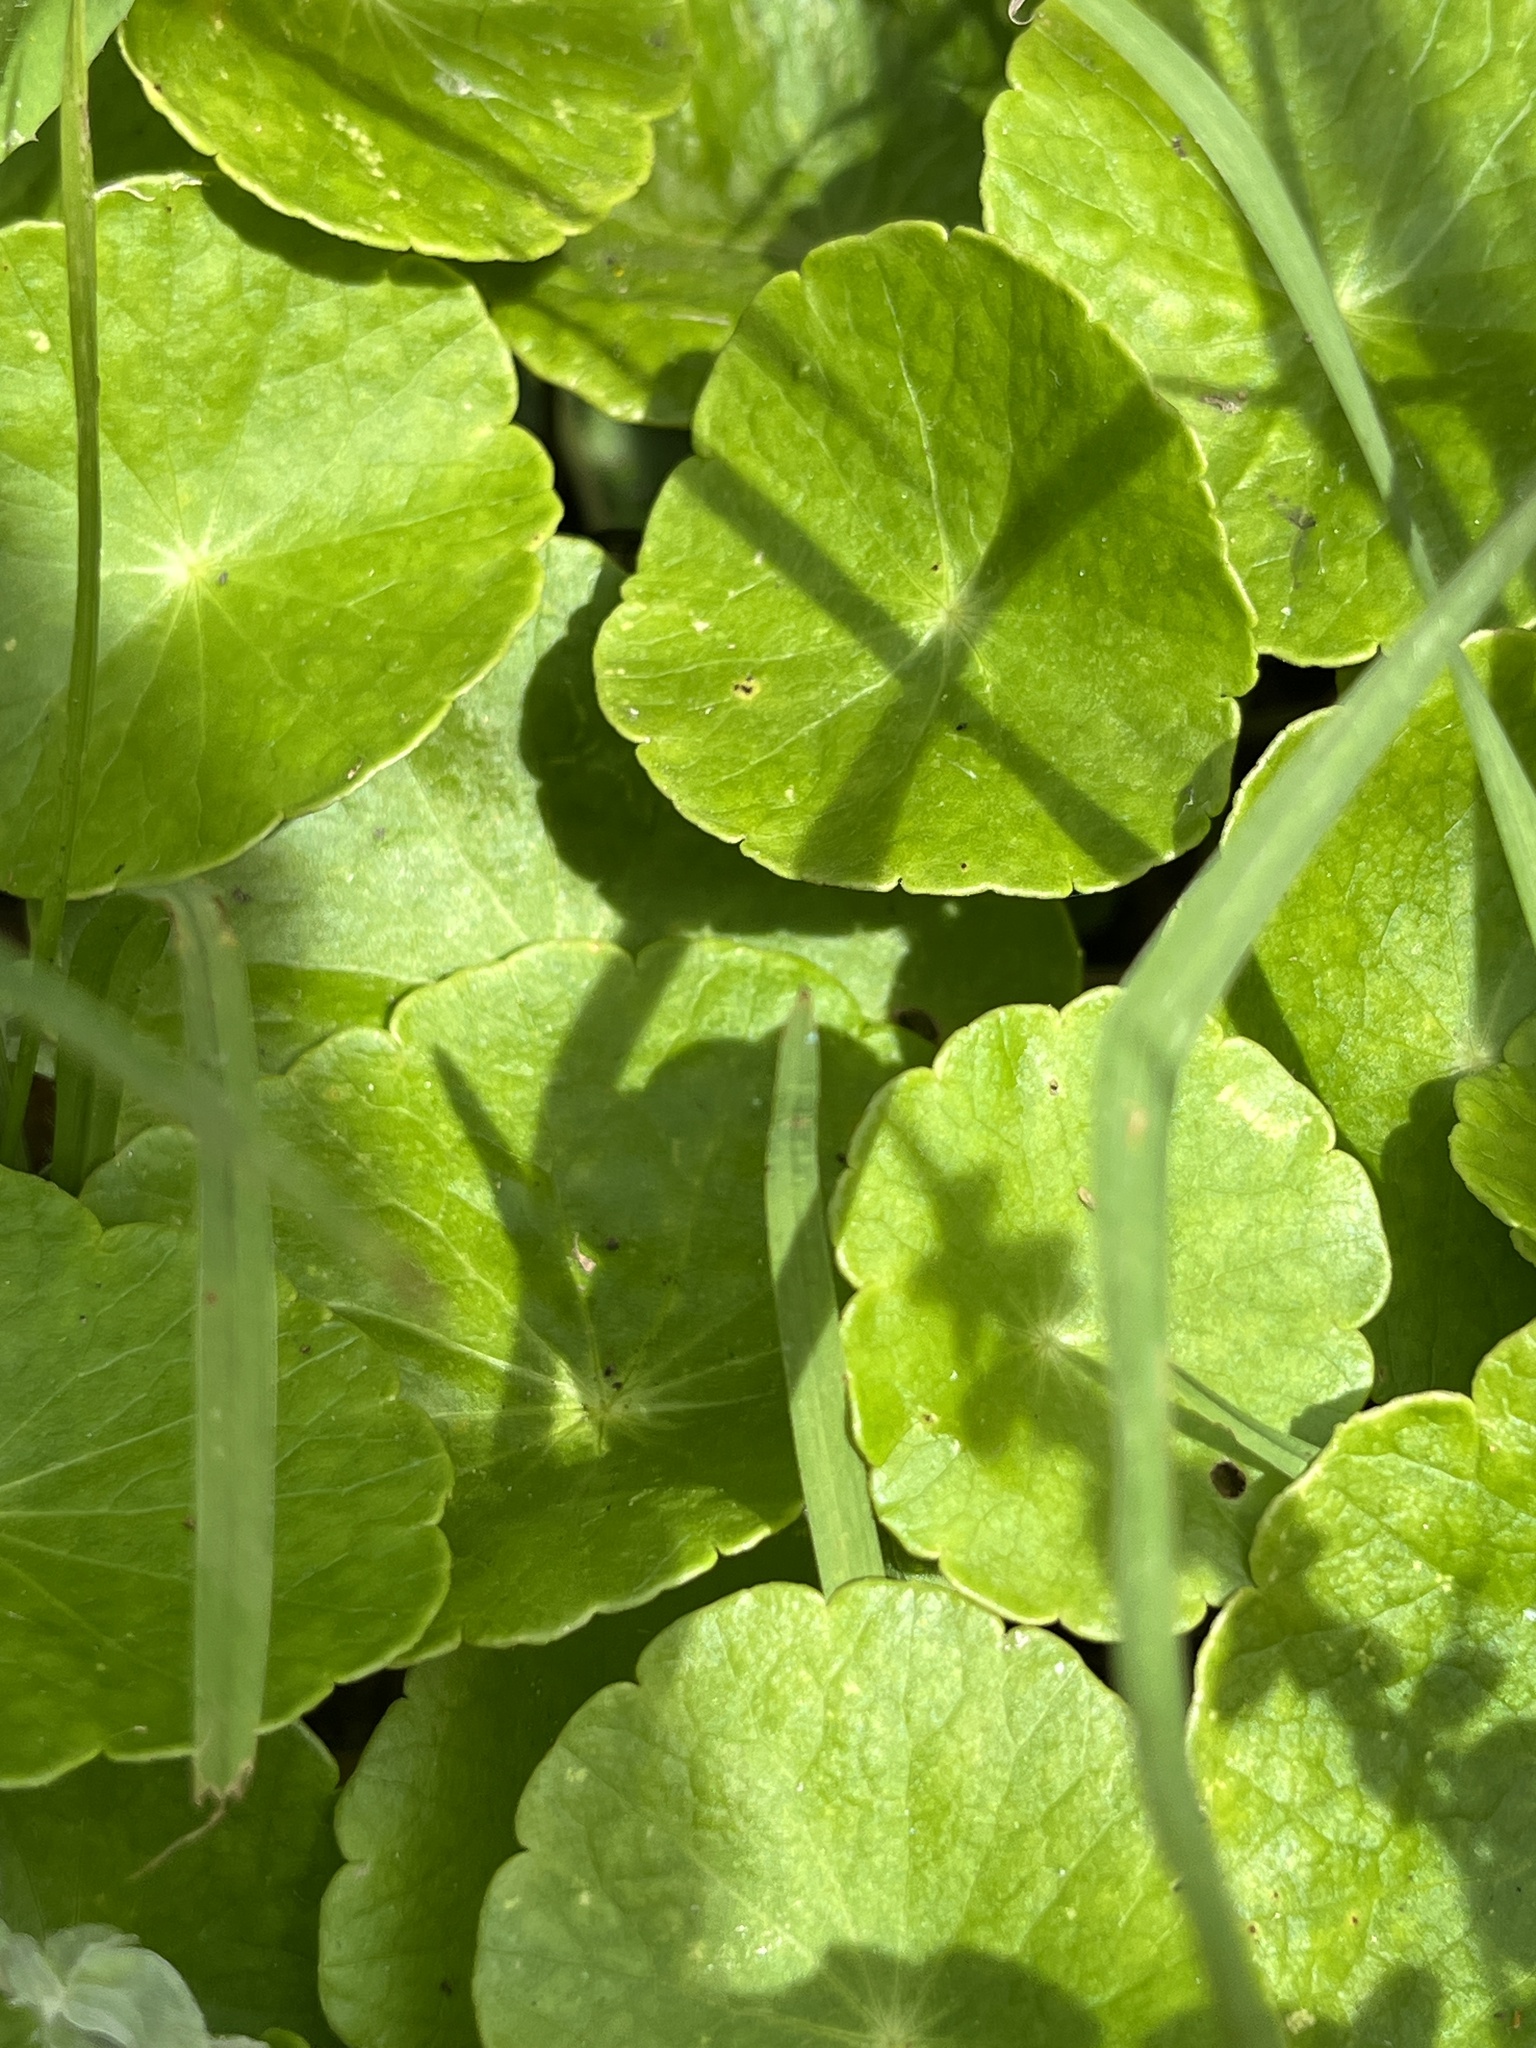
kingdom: Plantae
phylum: Tracheophyta
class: Magnoliopsida
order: Apiales
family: Araliaceae
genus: Hydrocotyle
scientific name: Hydrocotyle verticillata
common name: Whorled marshpennywort
